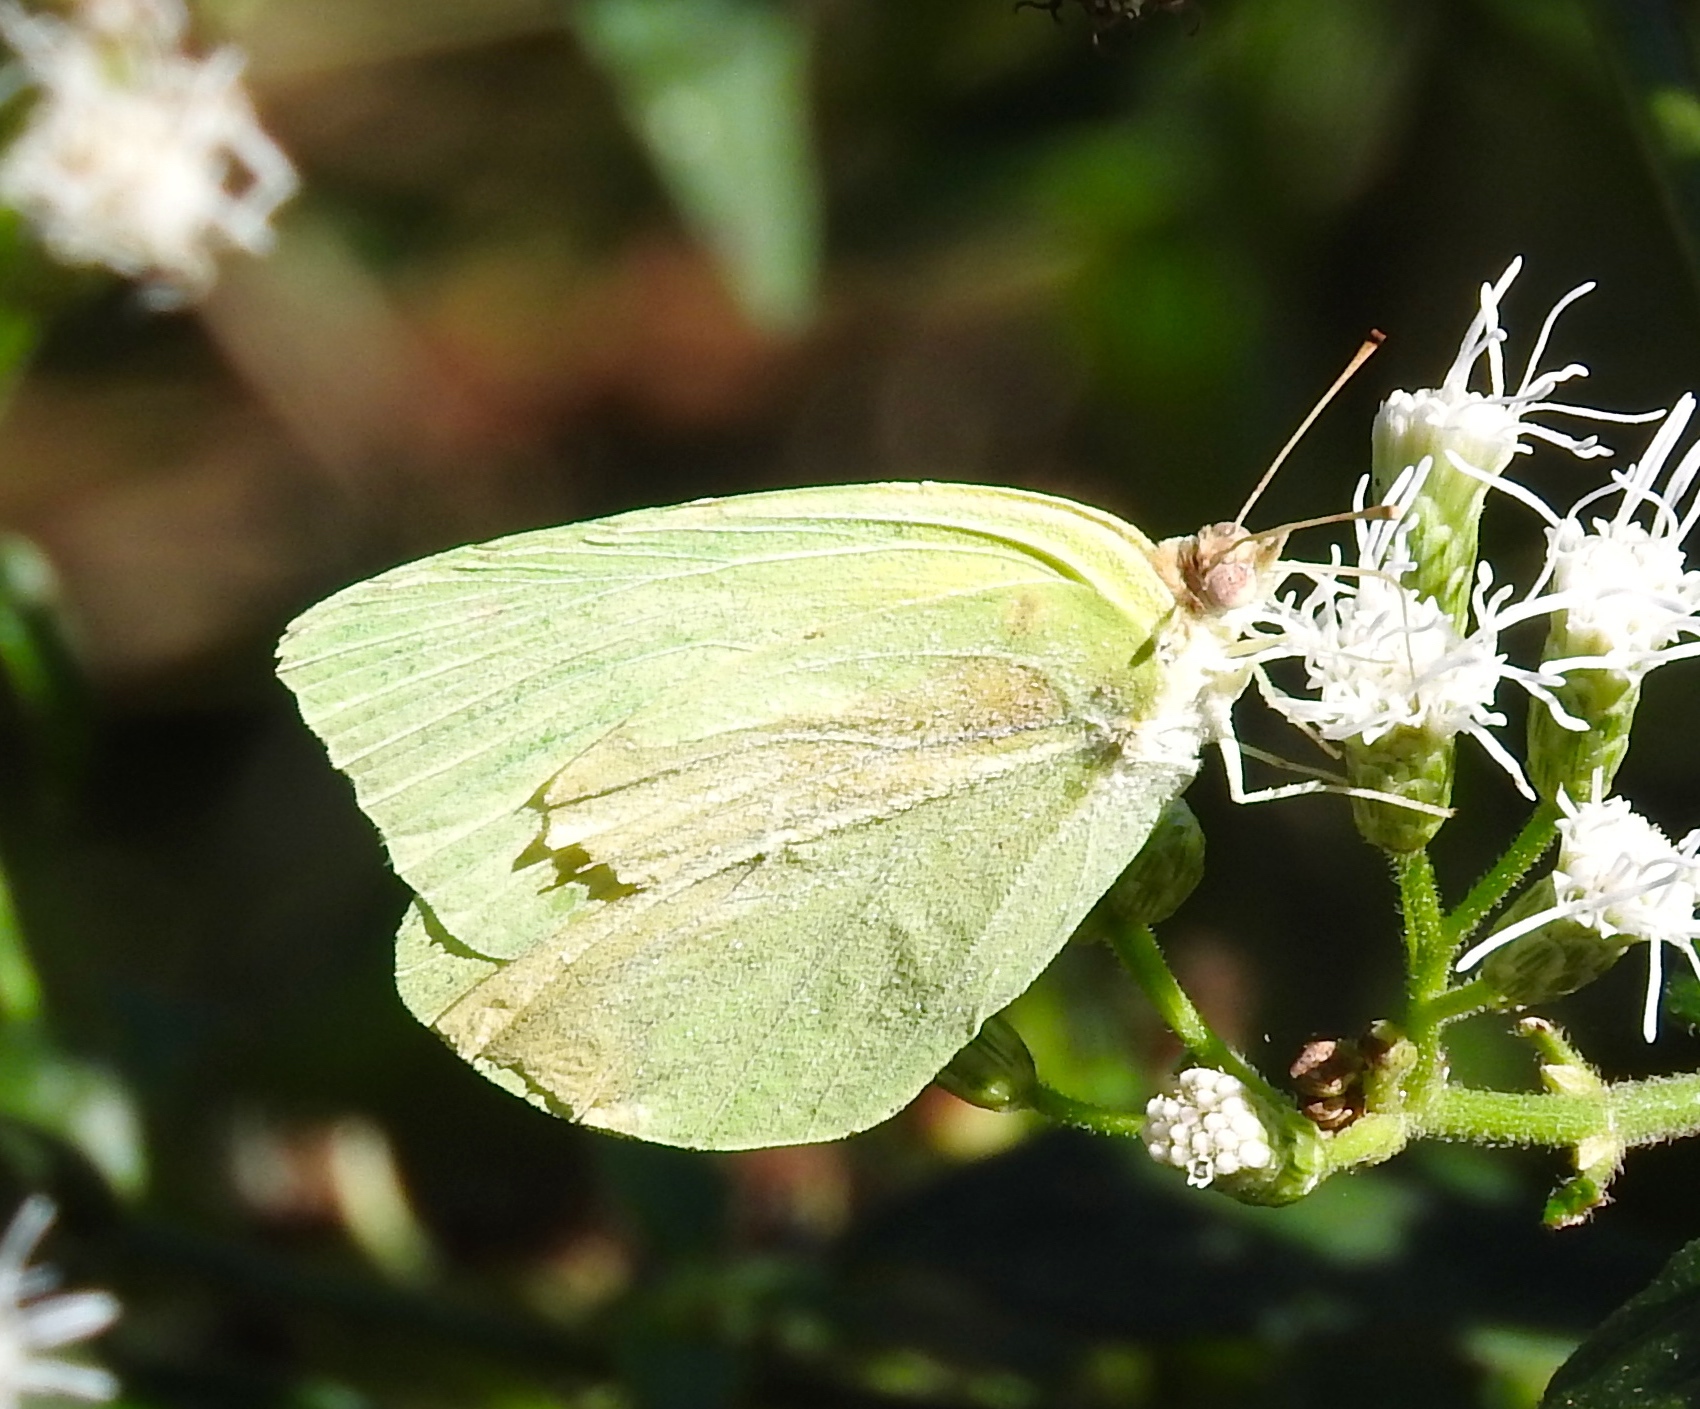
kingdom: Animalia
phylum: Arthropoda
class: Insecta
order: Lepidoptera
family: Pieridae
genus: Kricogonia
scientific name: Kricogonia lyside
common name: Guayacan sulphur,
